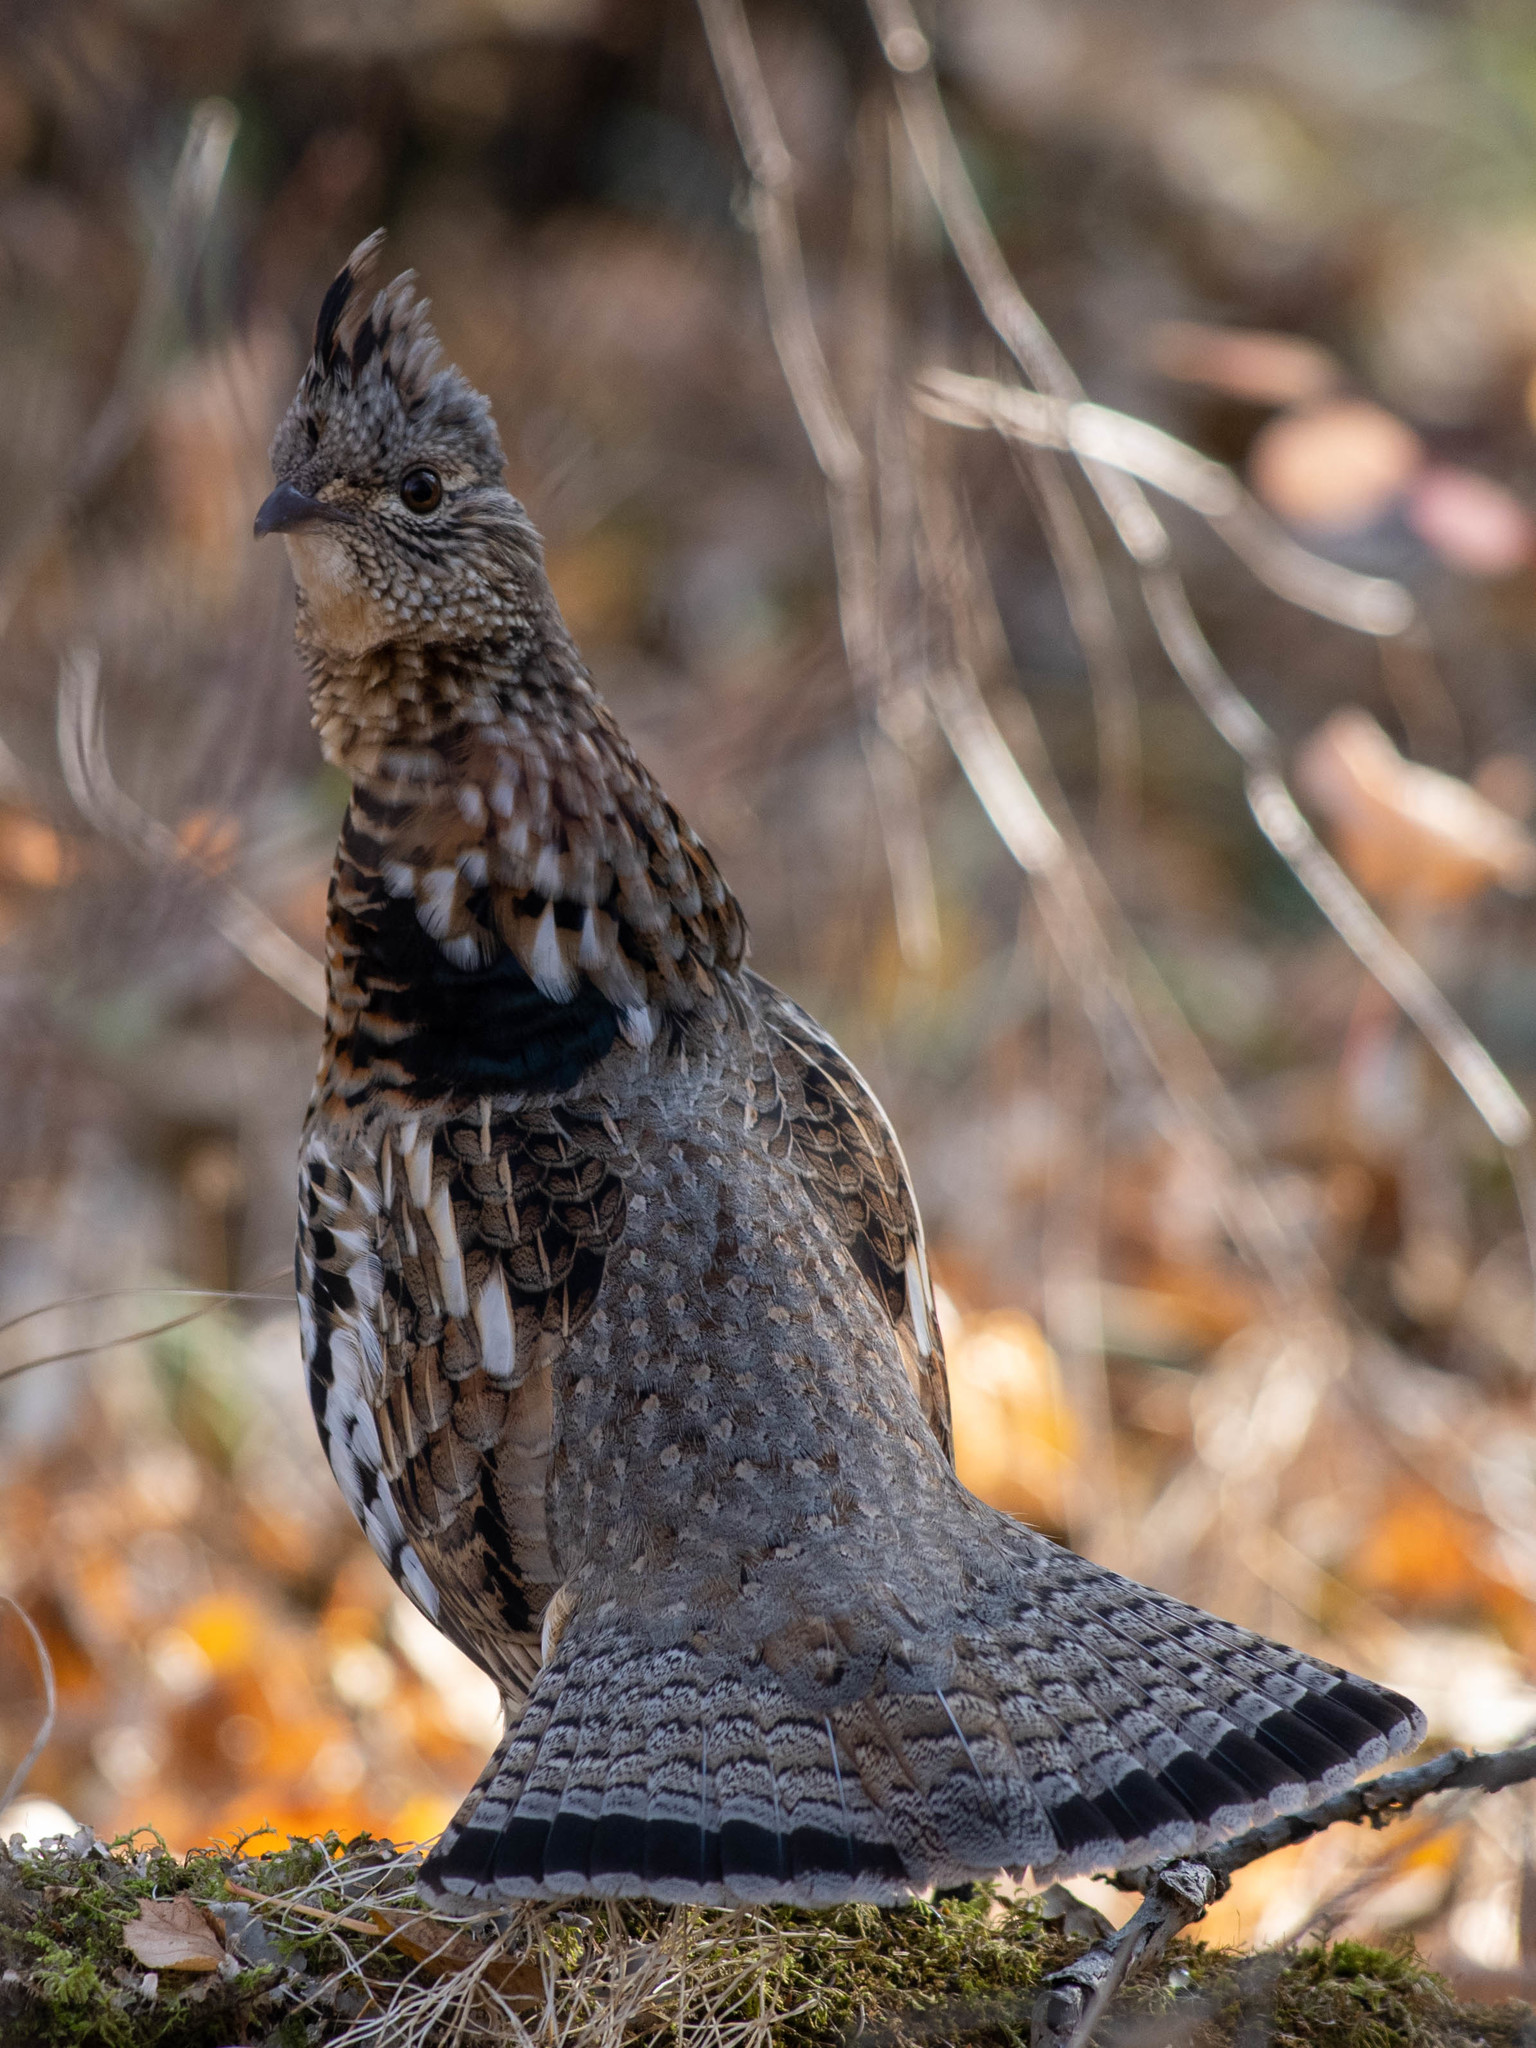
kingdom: Animalia
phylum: Chordata
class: Aves
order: Galliformes
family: Phasianidae
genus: Bonasa
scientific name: Bonasa umbellus
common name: Ruffed grouse
